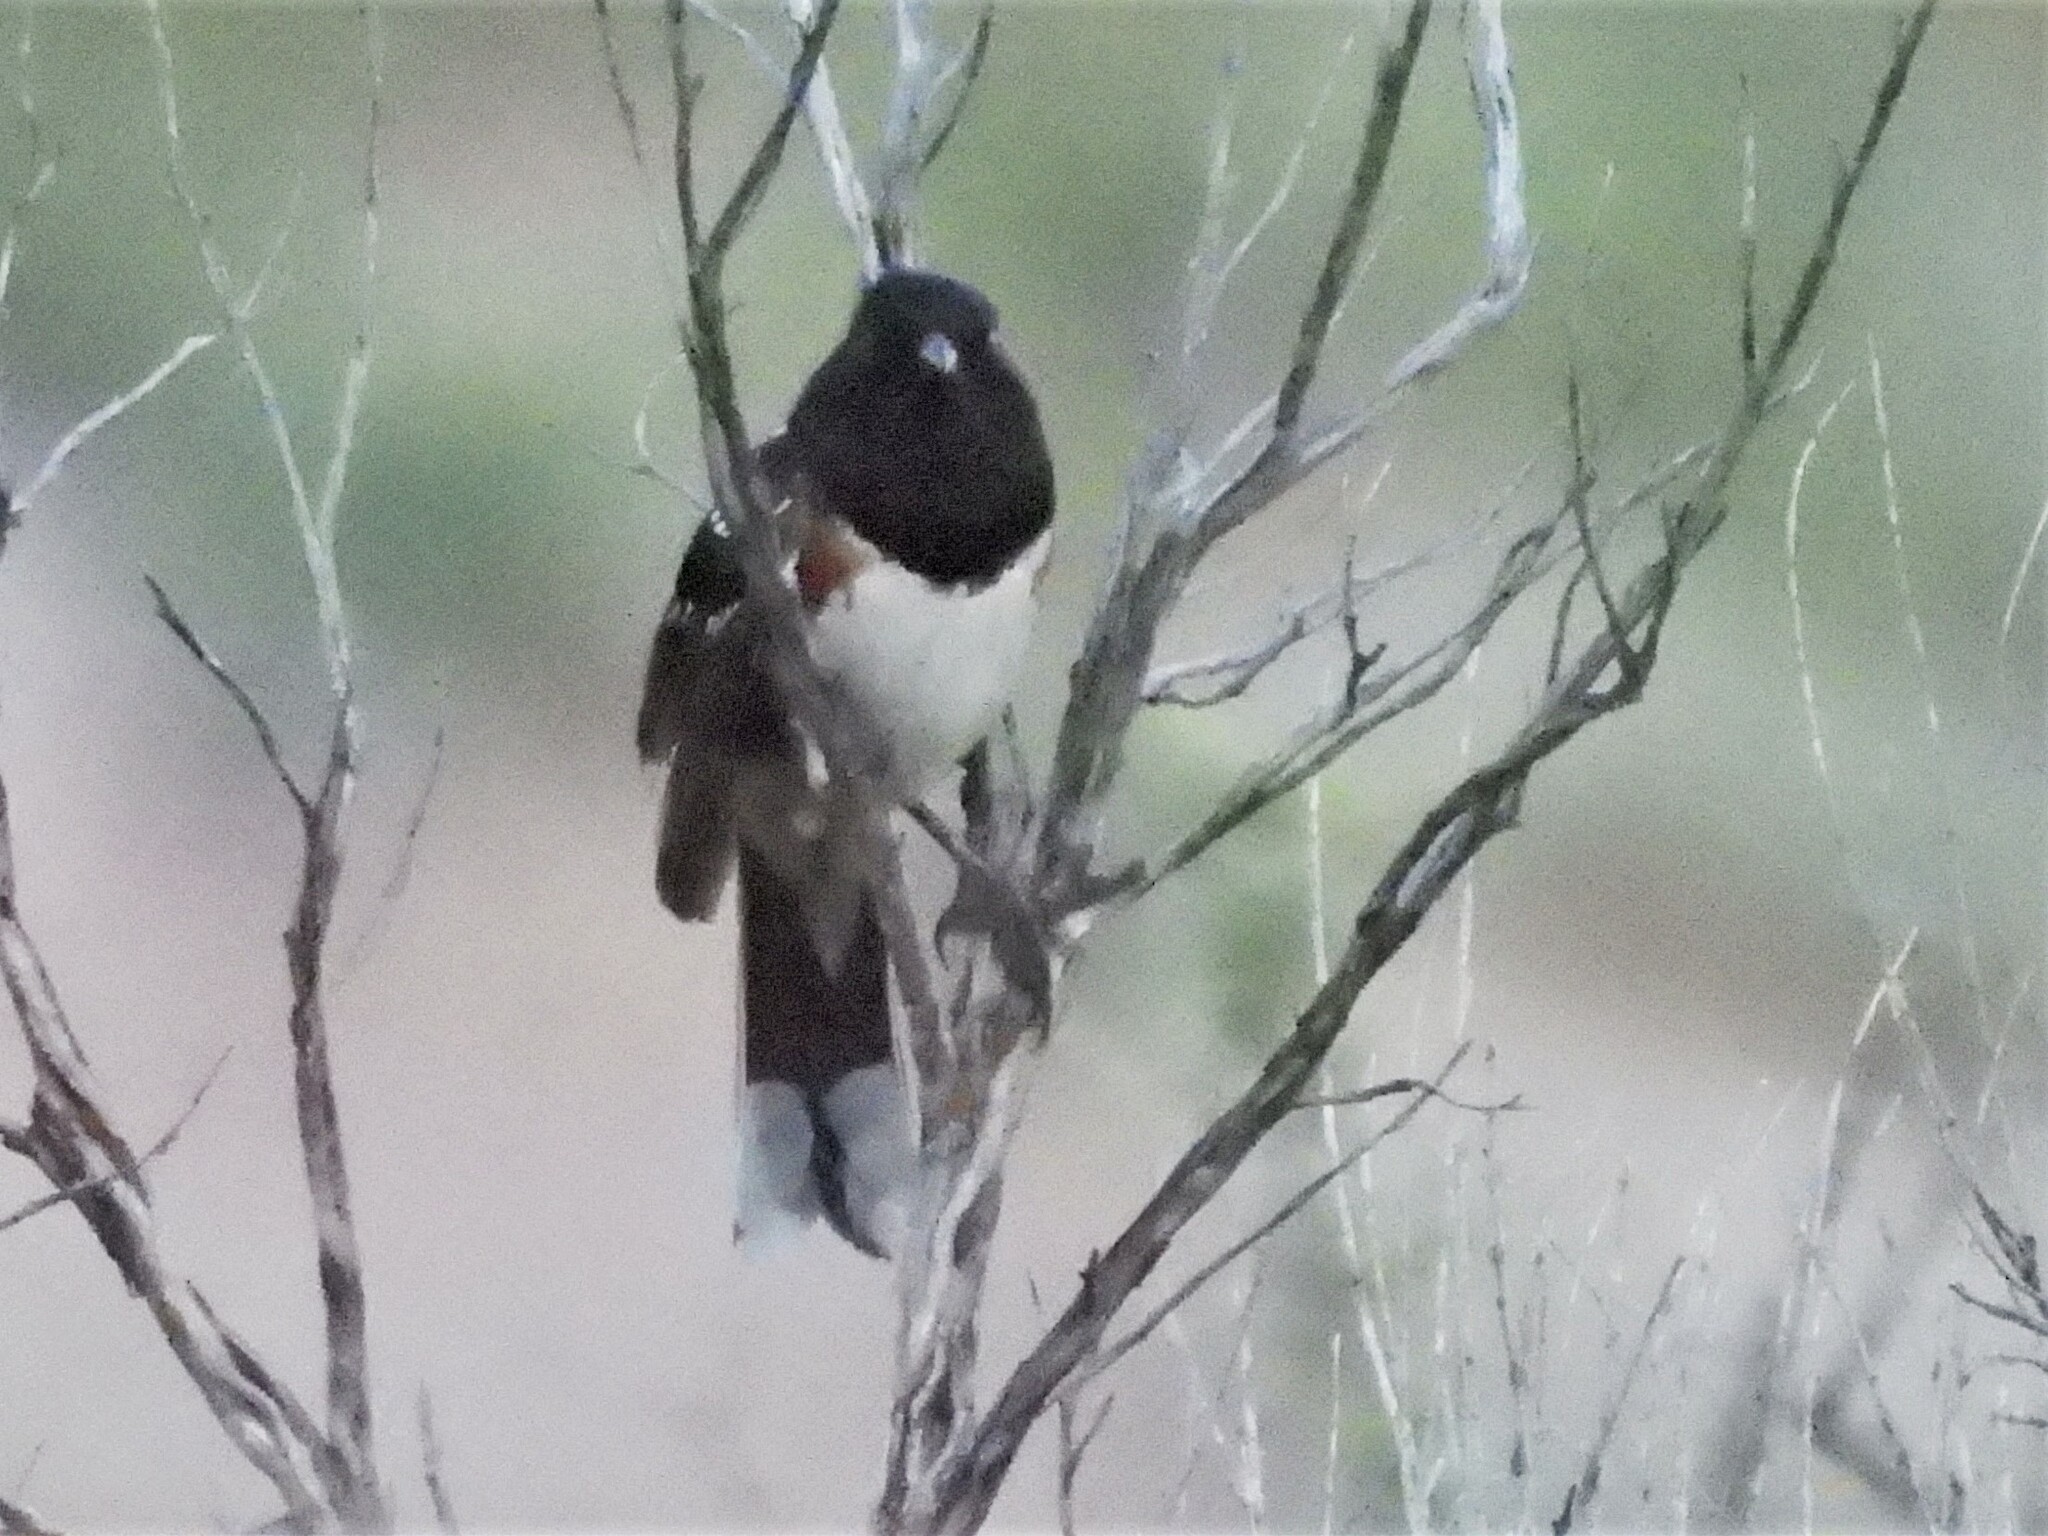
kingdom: Animalia
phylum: Chordata
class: Aves
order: Passeriformes
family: Passerellidae
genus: Pipilo
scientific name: Pipilo maculatus
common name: Spotted towhee
